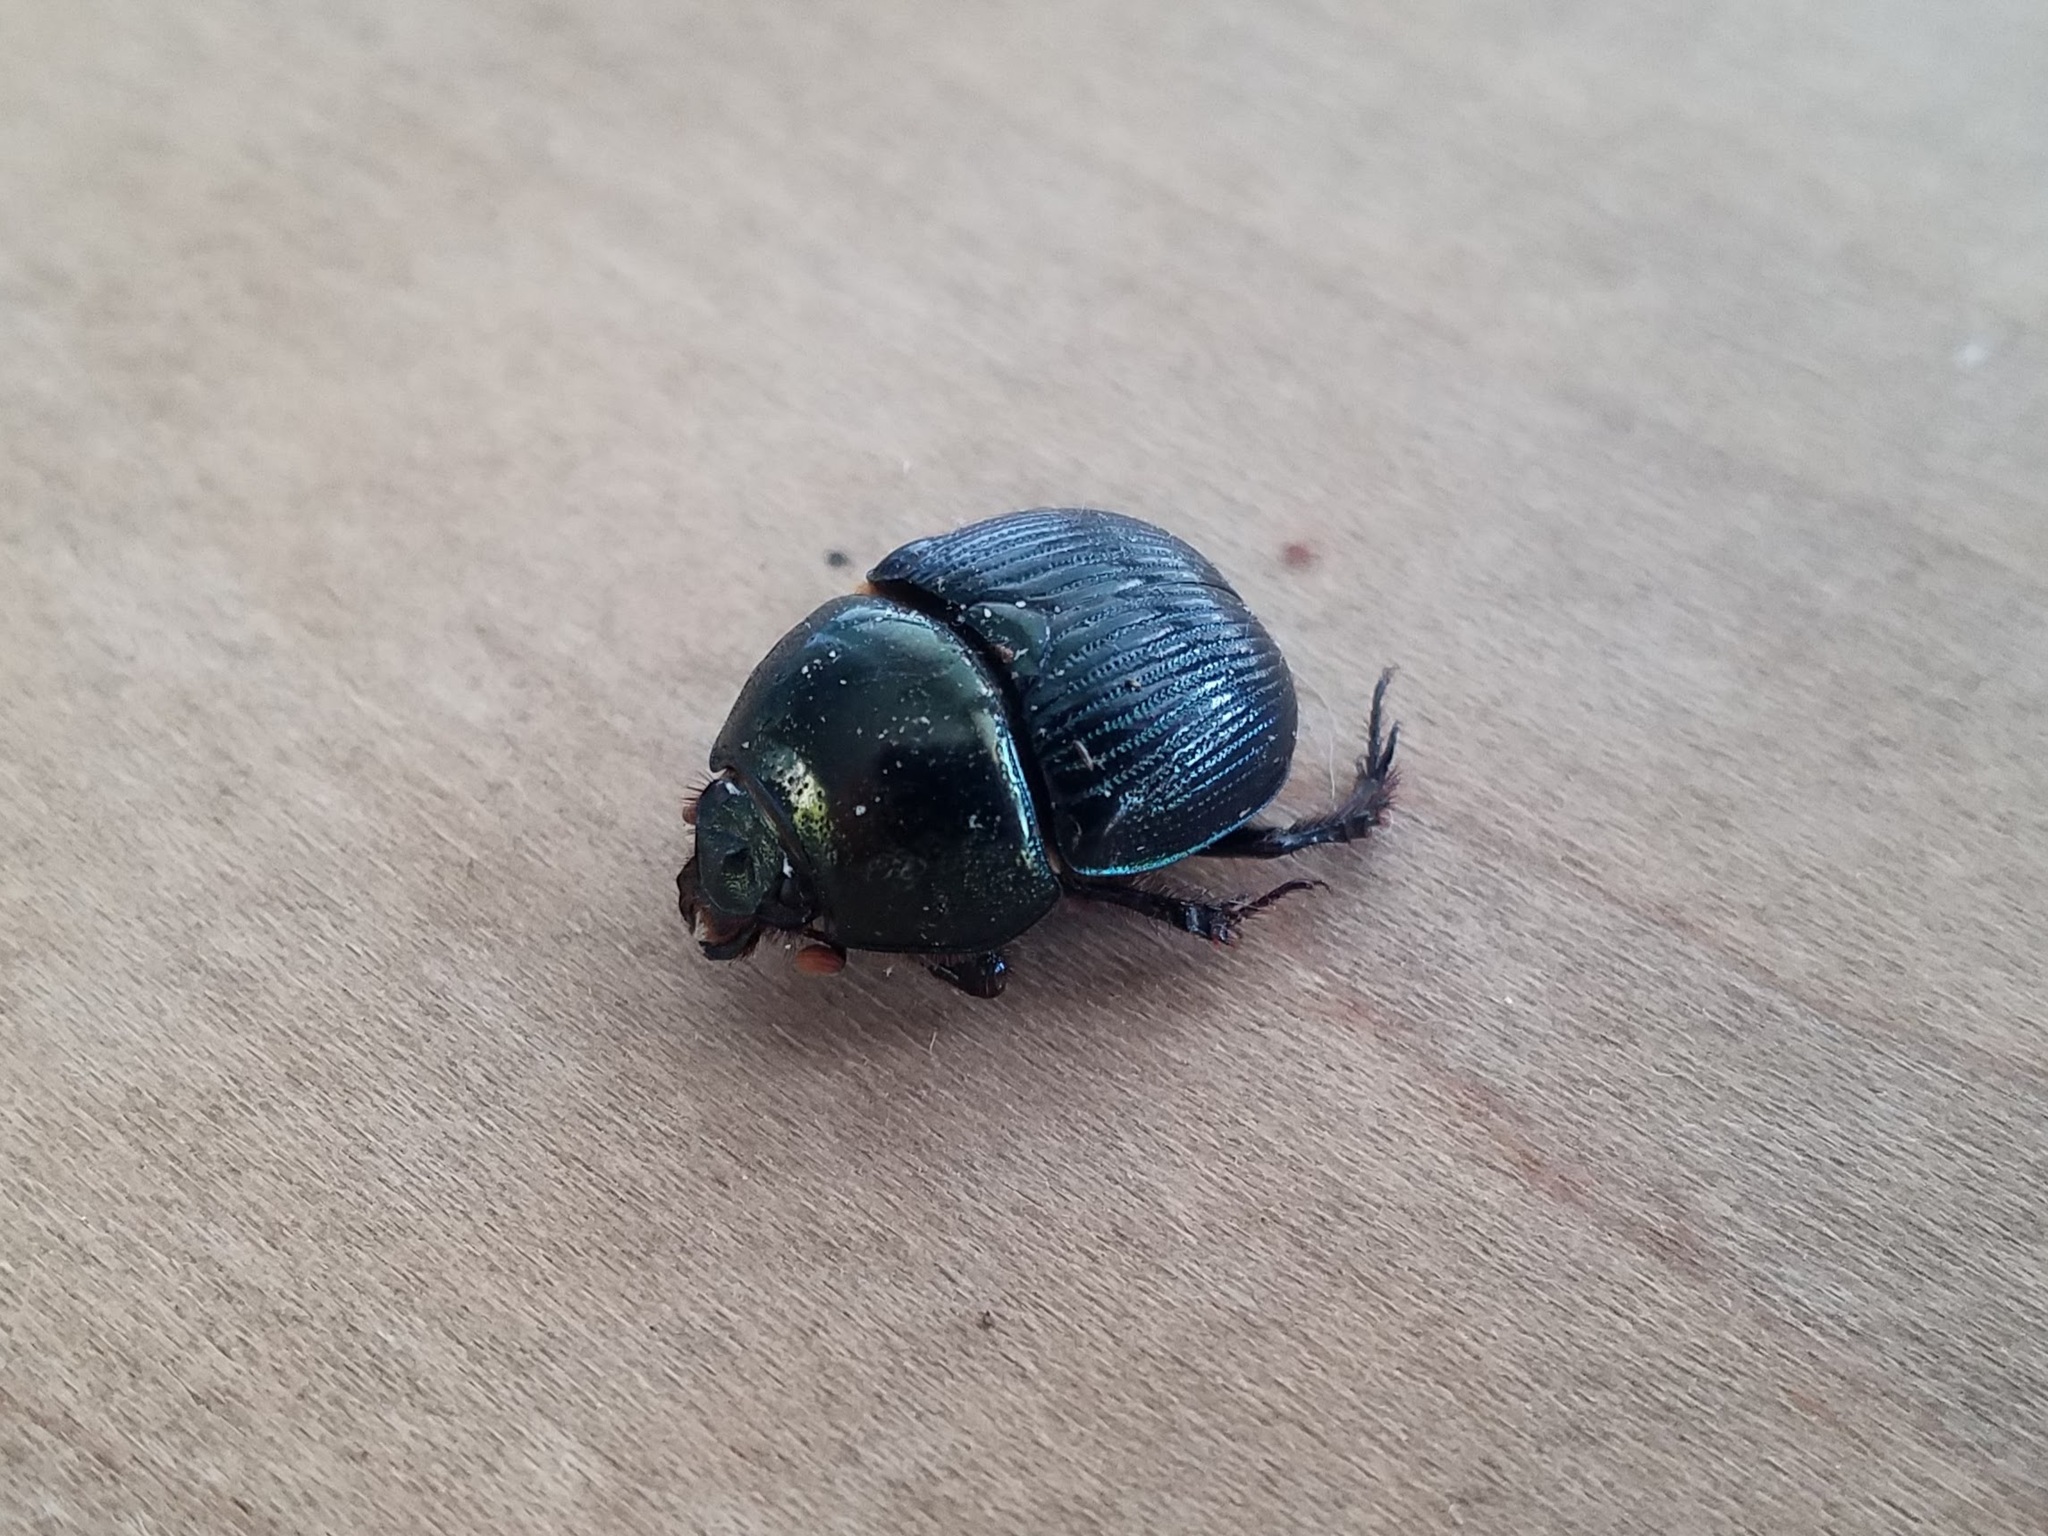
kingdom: Animalia
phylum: Arthropoda
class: Insecta
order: Coleoptera
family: Geotrupidae
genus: Geotrupes
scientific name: Geotrupes egeriei
